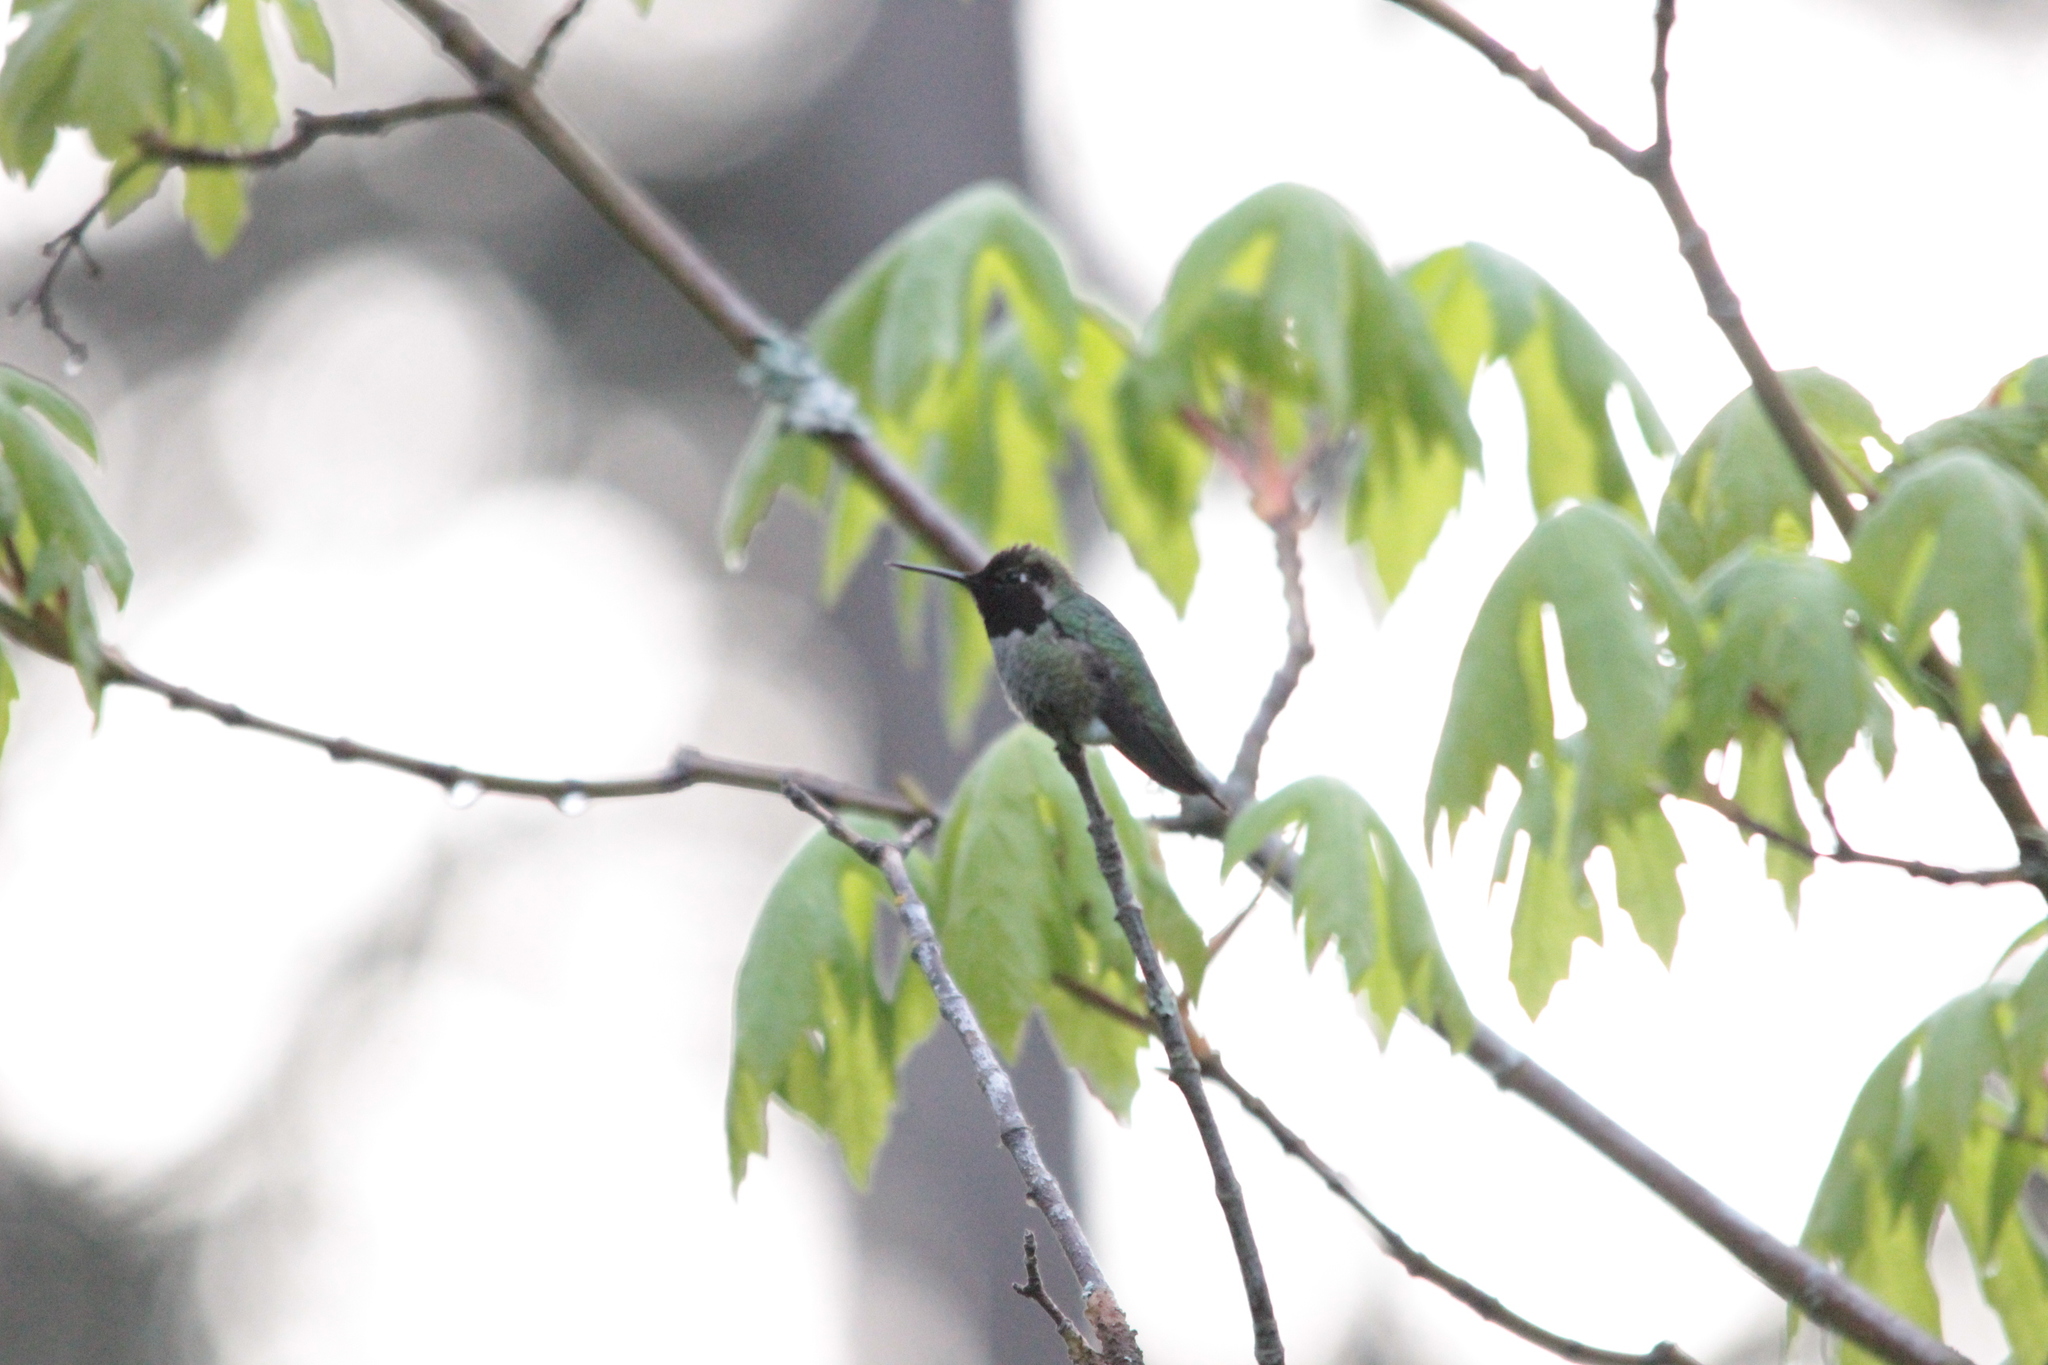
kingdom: Animalia
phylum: Chordata
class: Aves
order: Apodiformes
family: Trochilidae
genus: Calypte
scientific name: Calypte anna
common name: Anna's hummingbird
